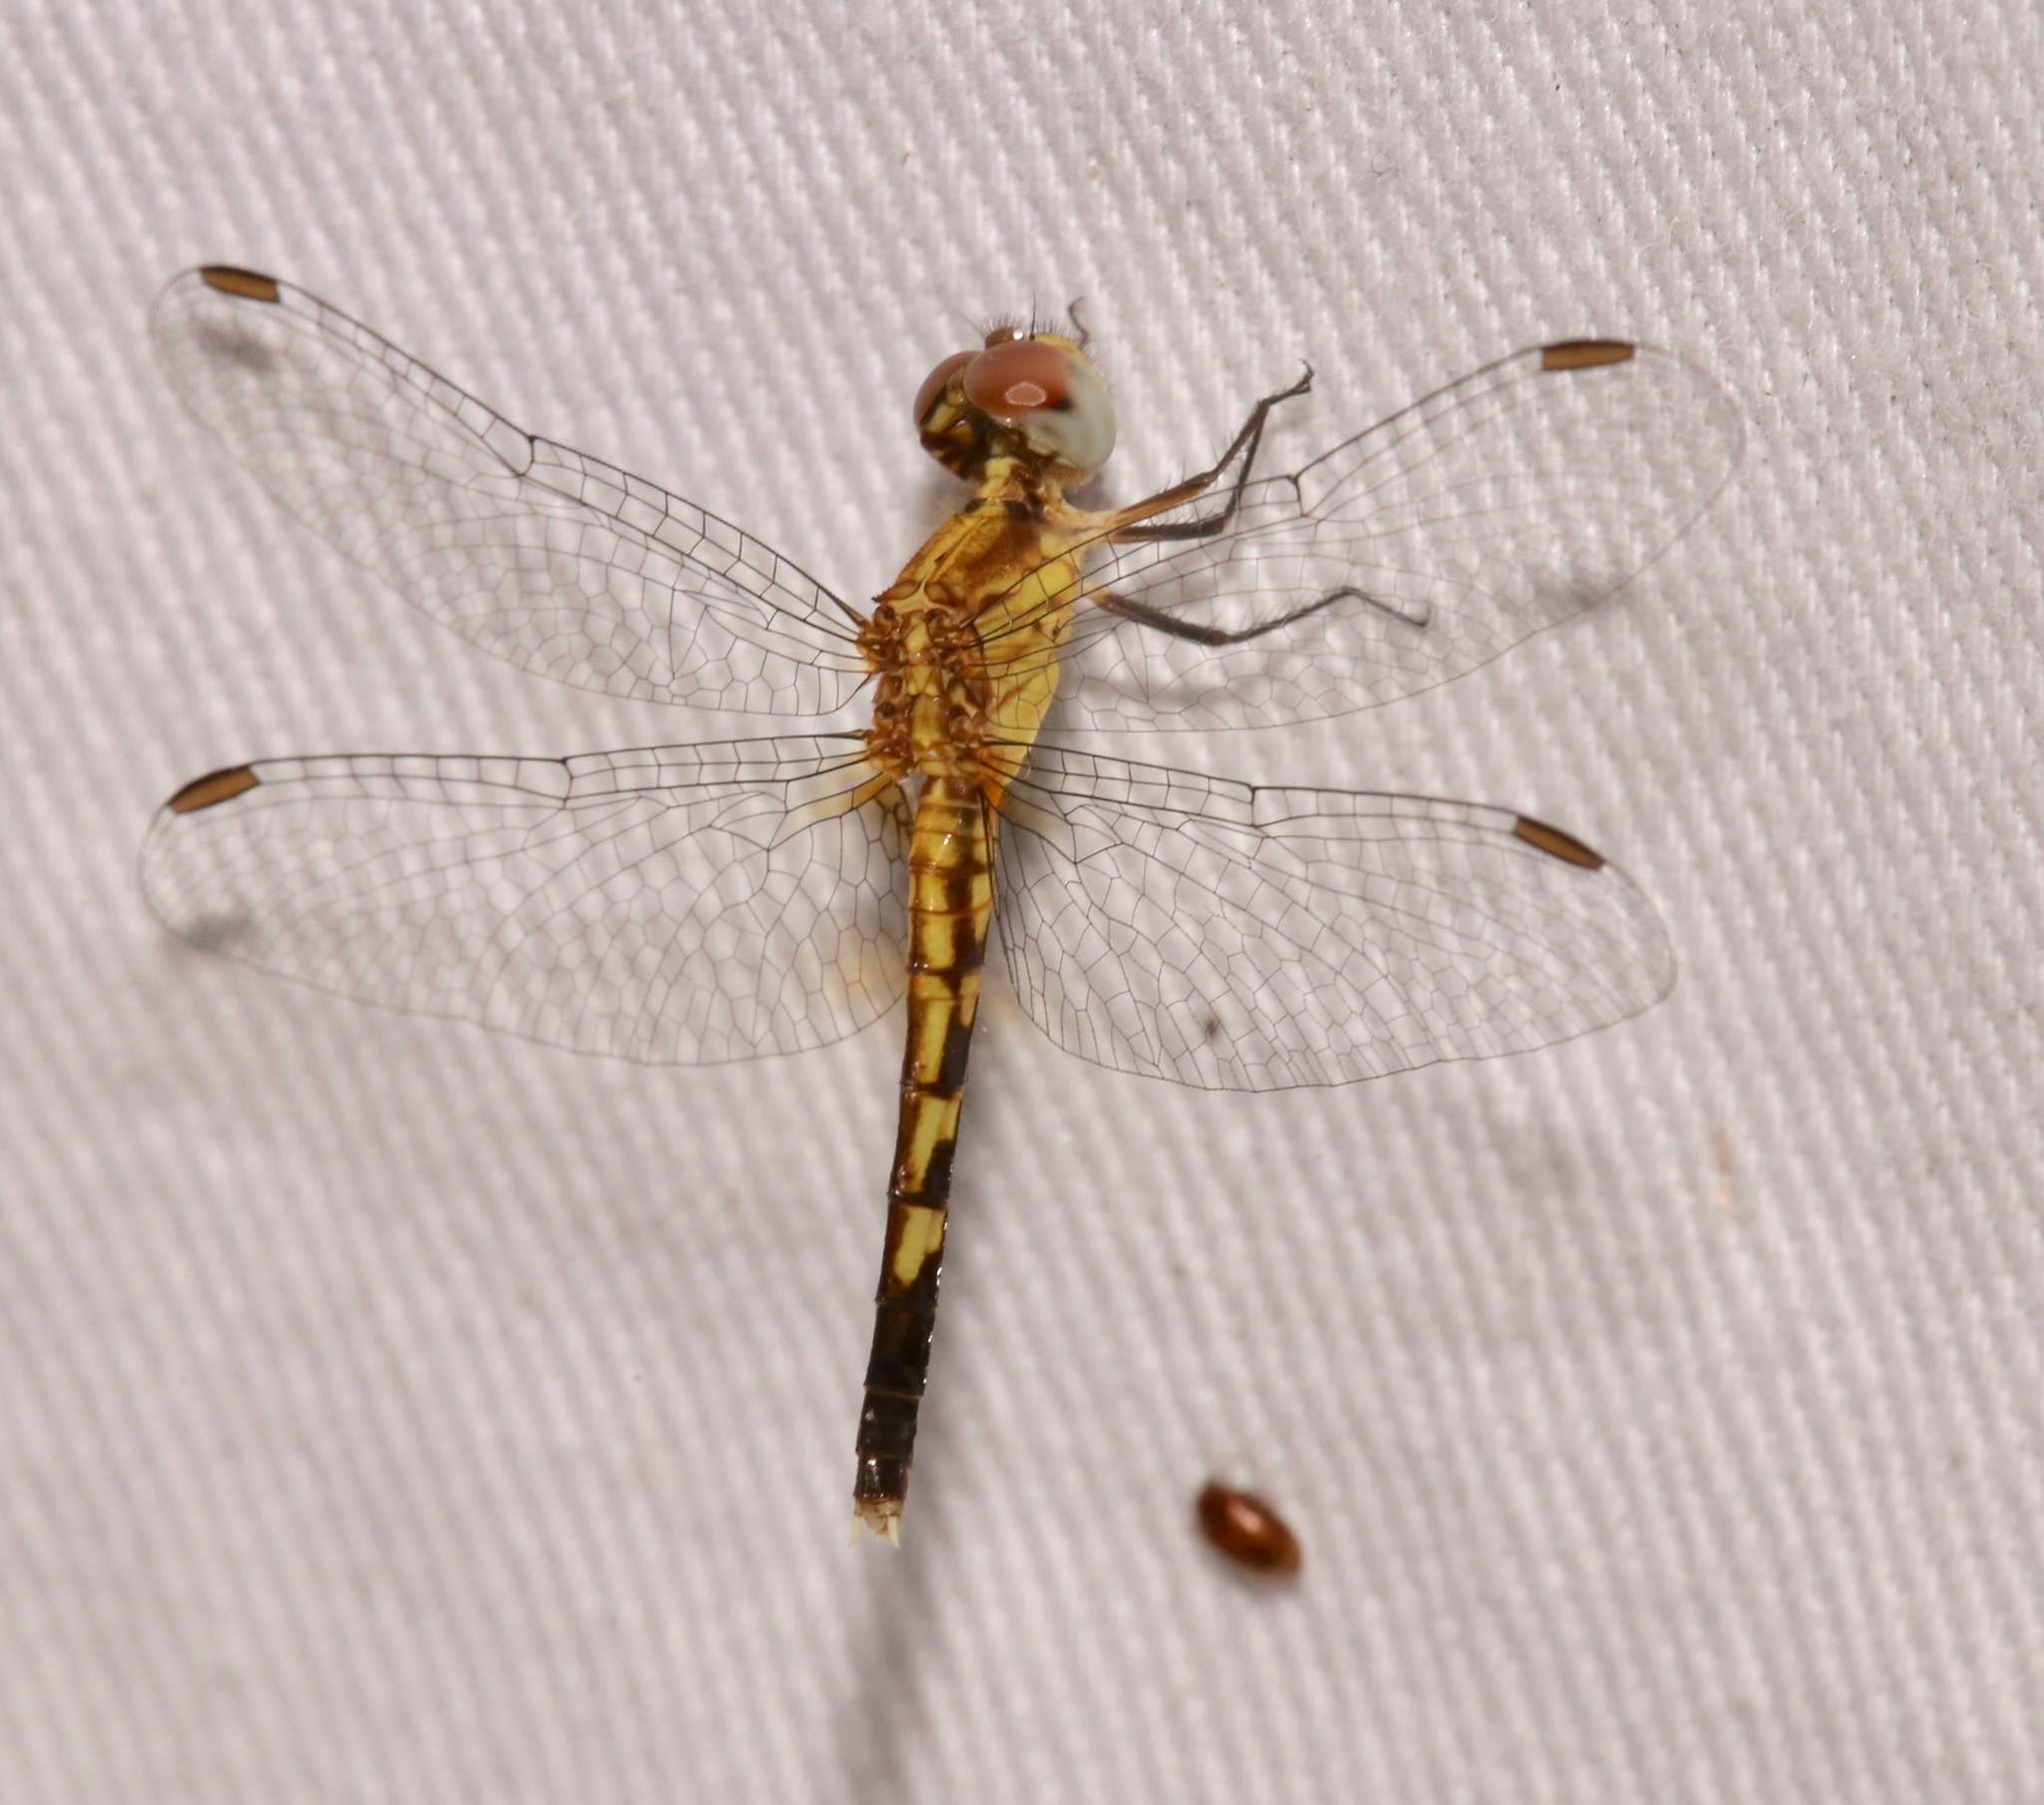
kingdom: Animalia
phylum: Arthropoda
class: Insecta
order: Odonata
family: Libellulidae
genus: Erythrodiplax
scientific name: Erythrodiplax minuscula
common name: Little blue dragonlet
